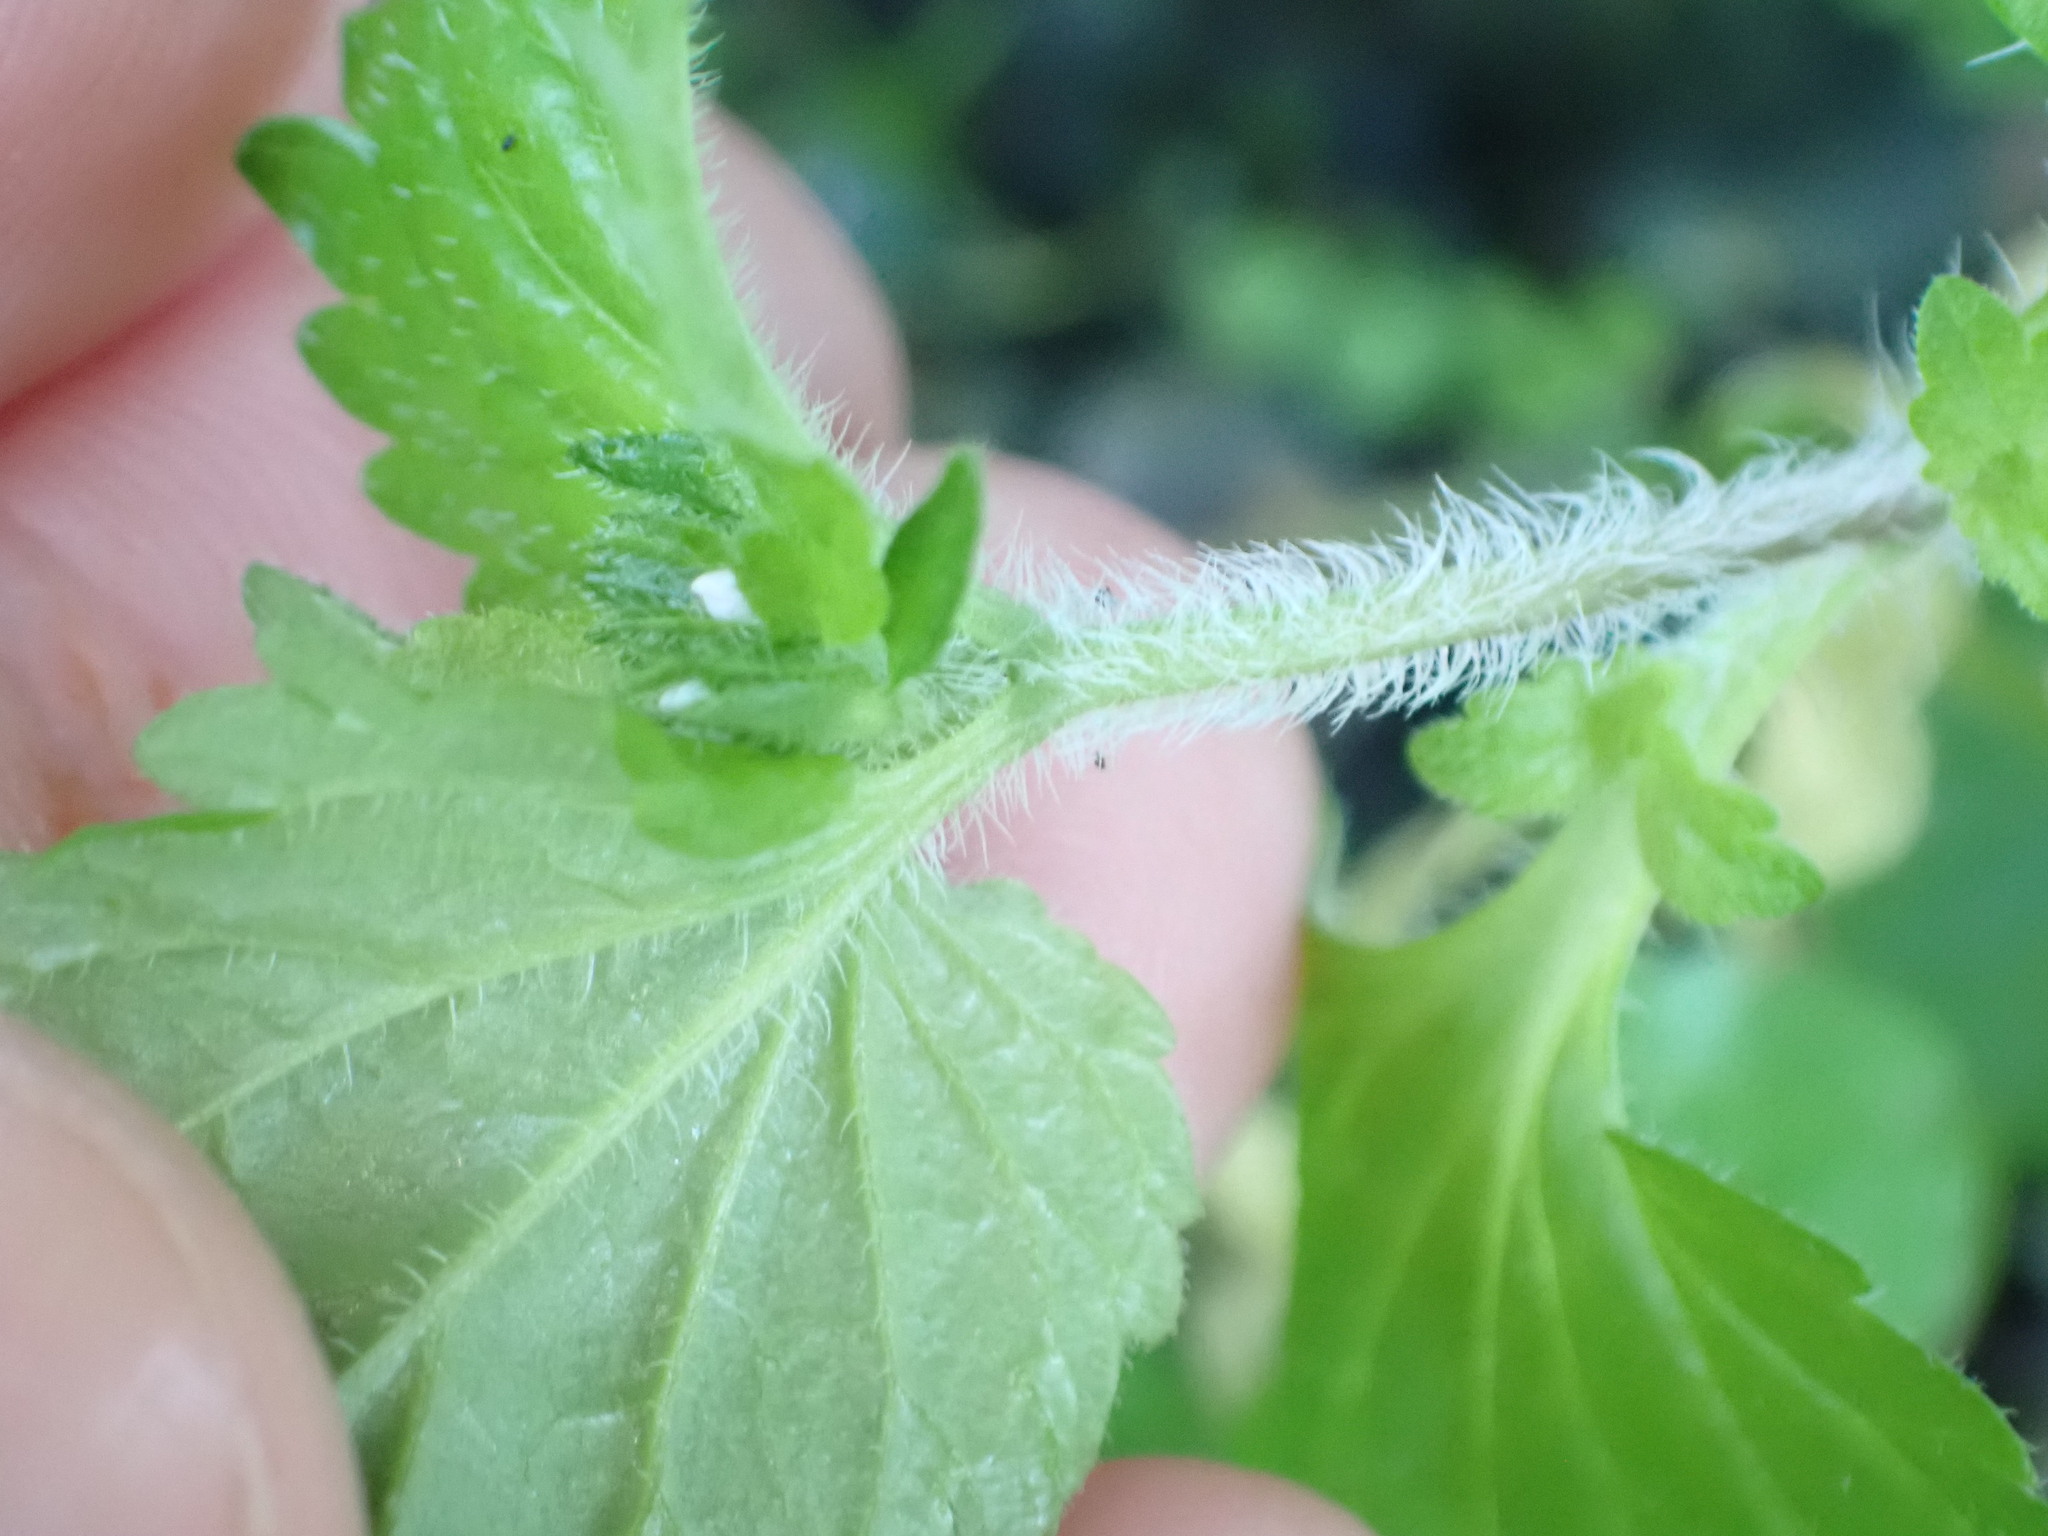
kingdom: Plantae
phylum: Tracheophyta
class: Magnoliopsida
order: Lamiales
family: Plantaginaceae
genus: Veronica
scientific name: Veronica javanica
